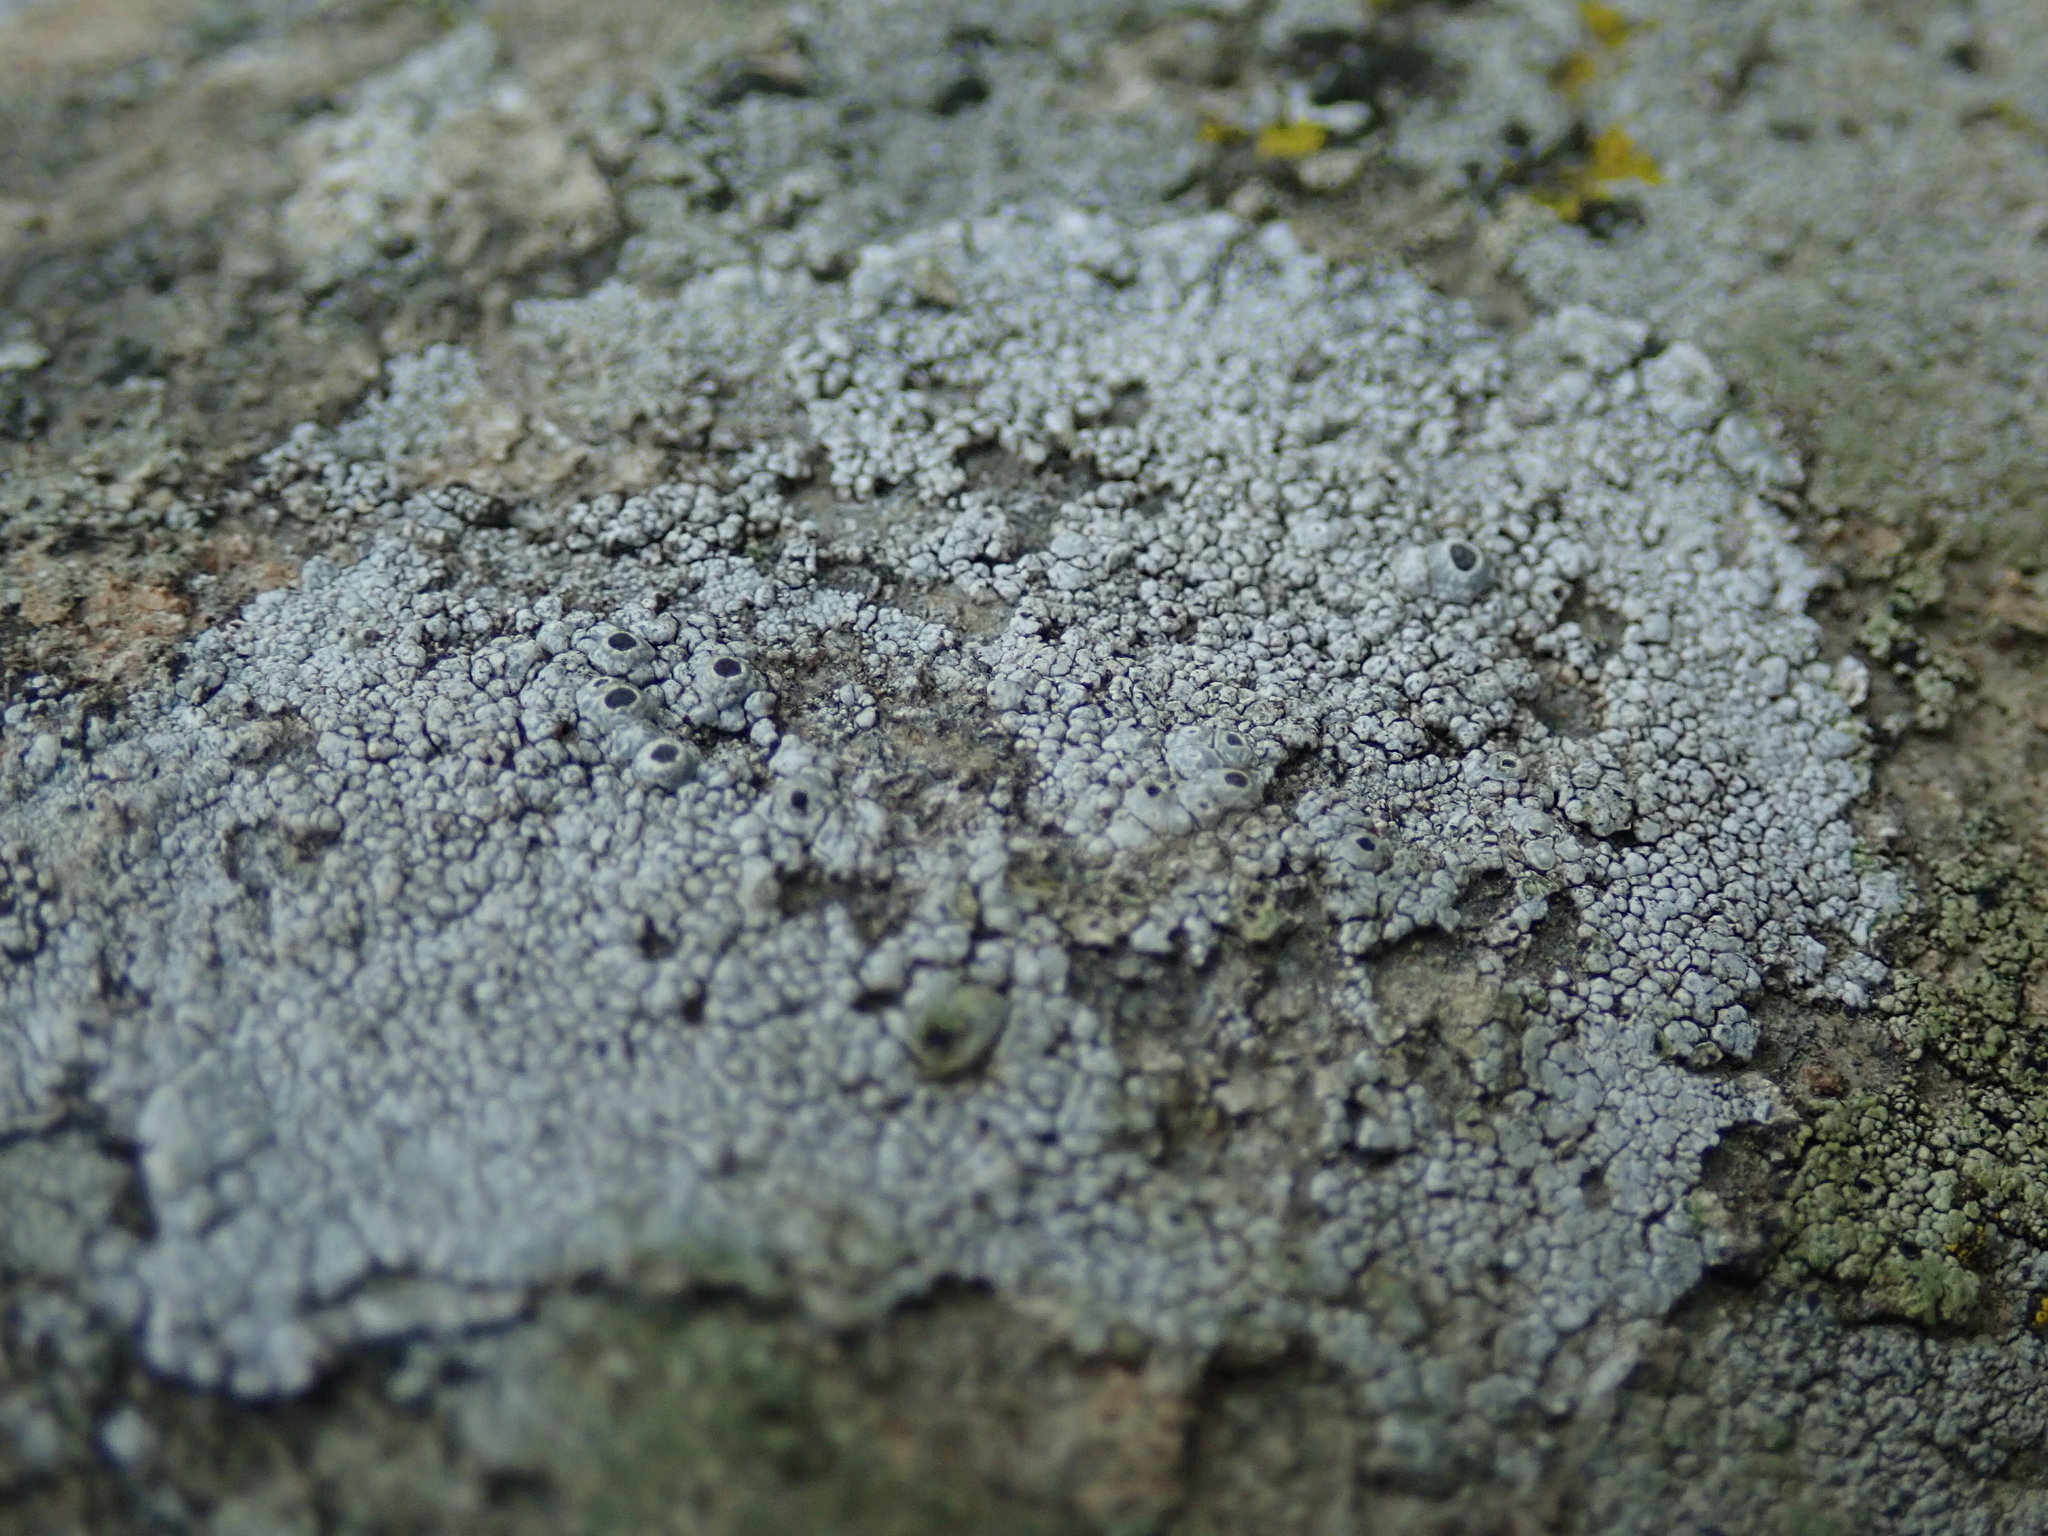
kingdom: Fungi
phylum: Ascomycota
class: Lecanoromycetes
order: Caliciales
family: Caliciaceae
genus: Thelomma
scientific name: Thelomma mammosum
